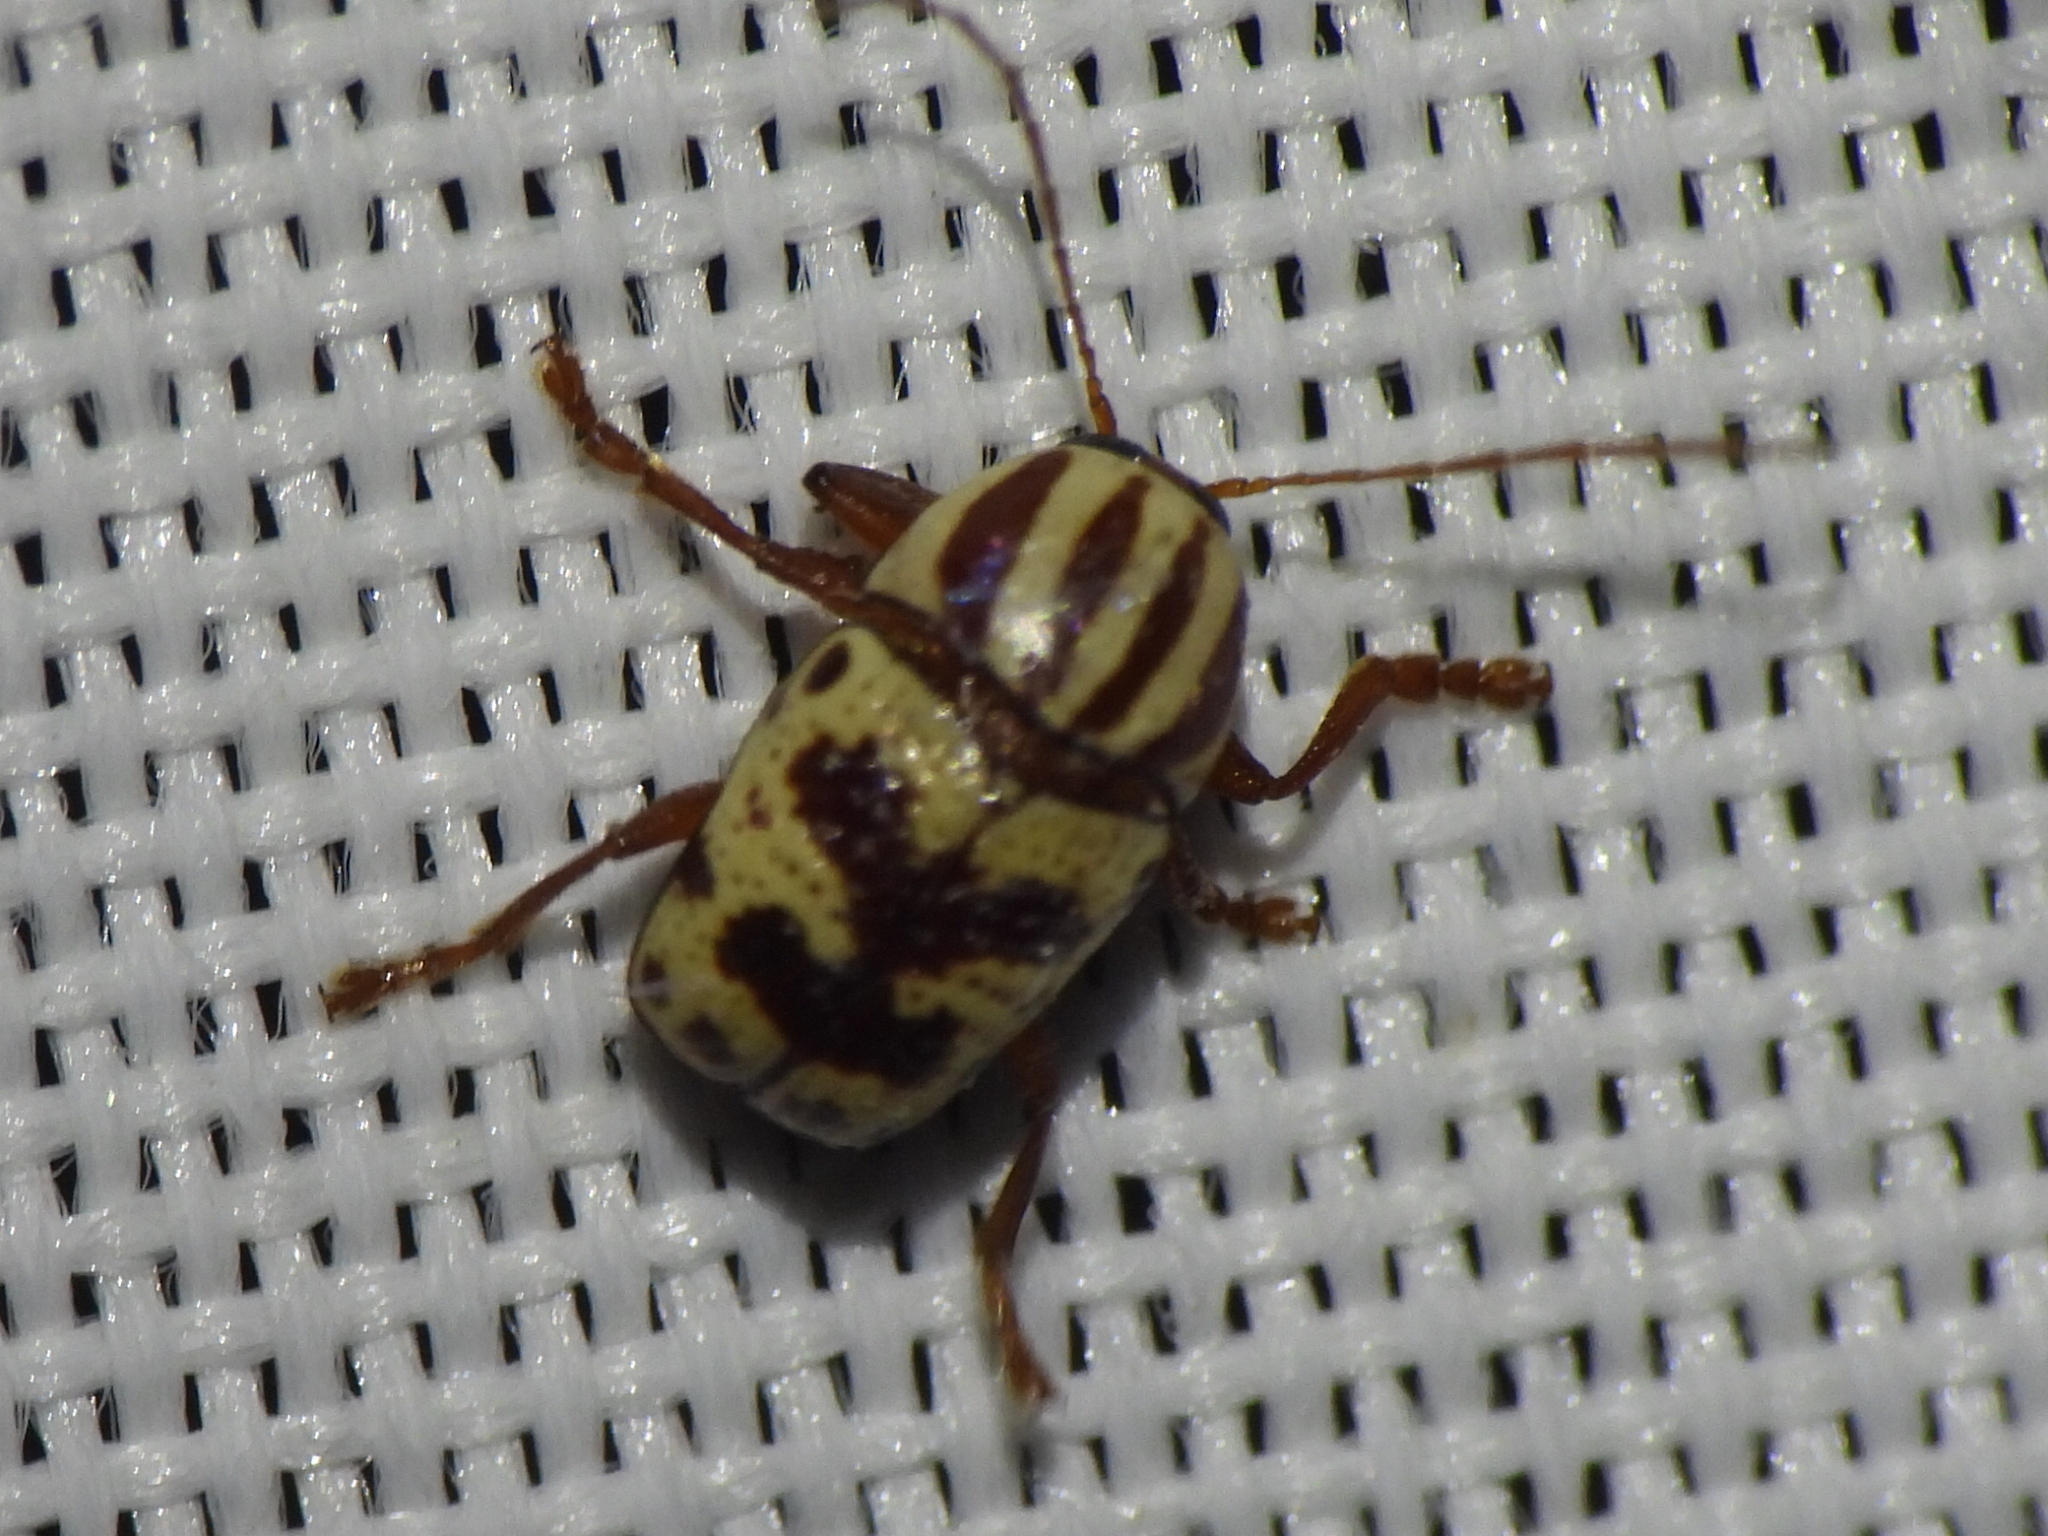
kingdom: Animalia
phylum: Arthropoda
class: Insecta
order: Coleoptera
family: Chrysomelidae
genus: Cryptocephalus
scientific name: Cryptocephalus leucomelas
